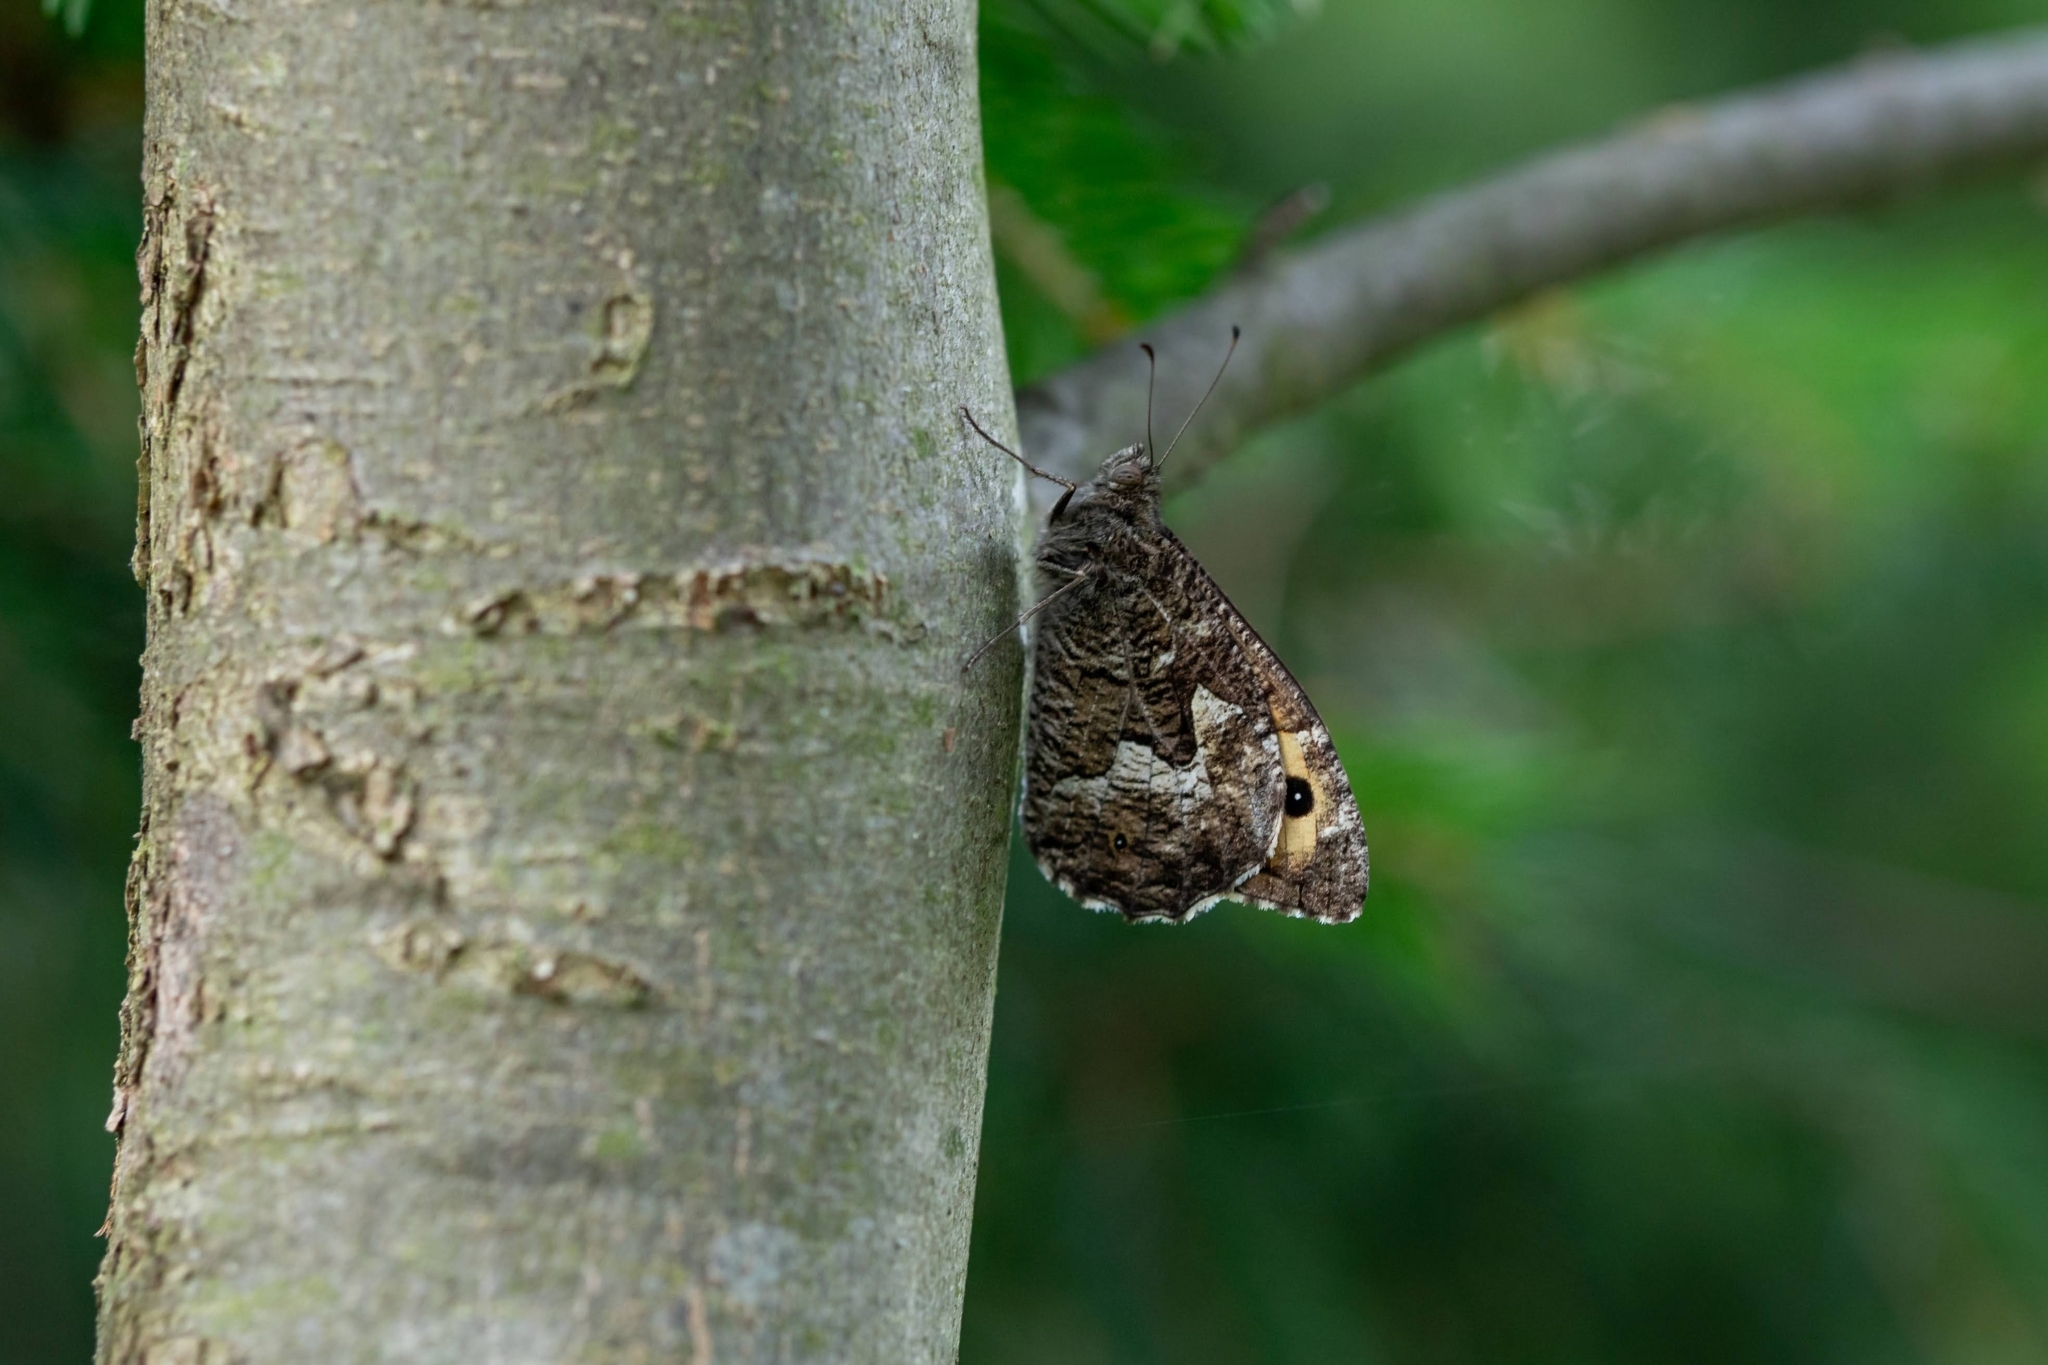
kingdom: Animalia
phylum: Arthropoda
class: Insecta
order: Lepidoptera
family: Nymphalidae
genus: Hipparchia
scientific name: Hipparchia semele
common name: Grayling
